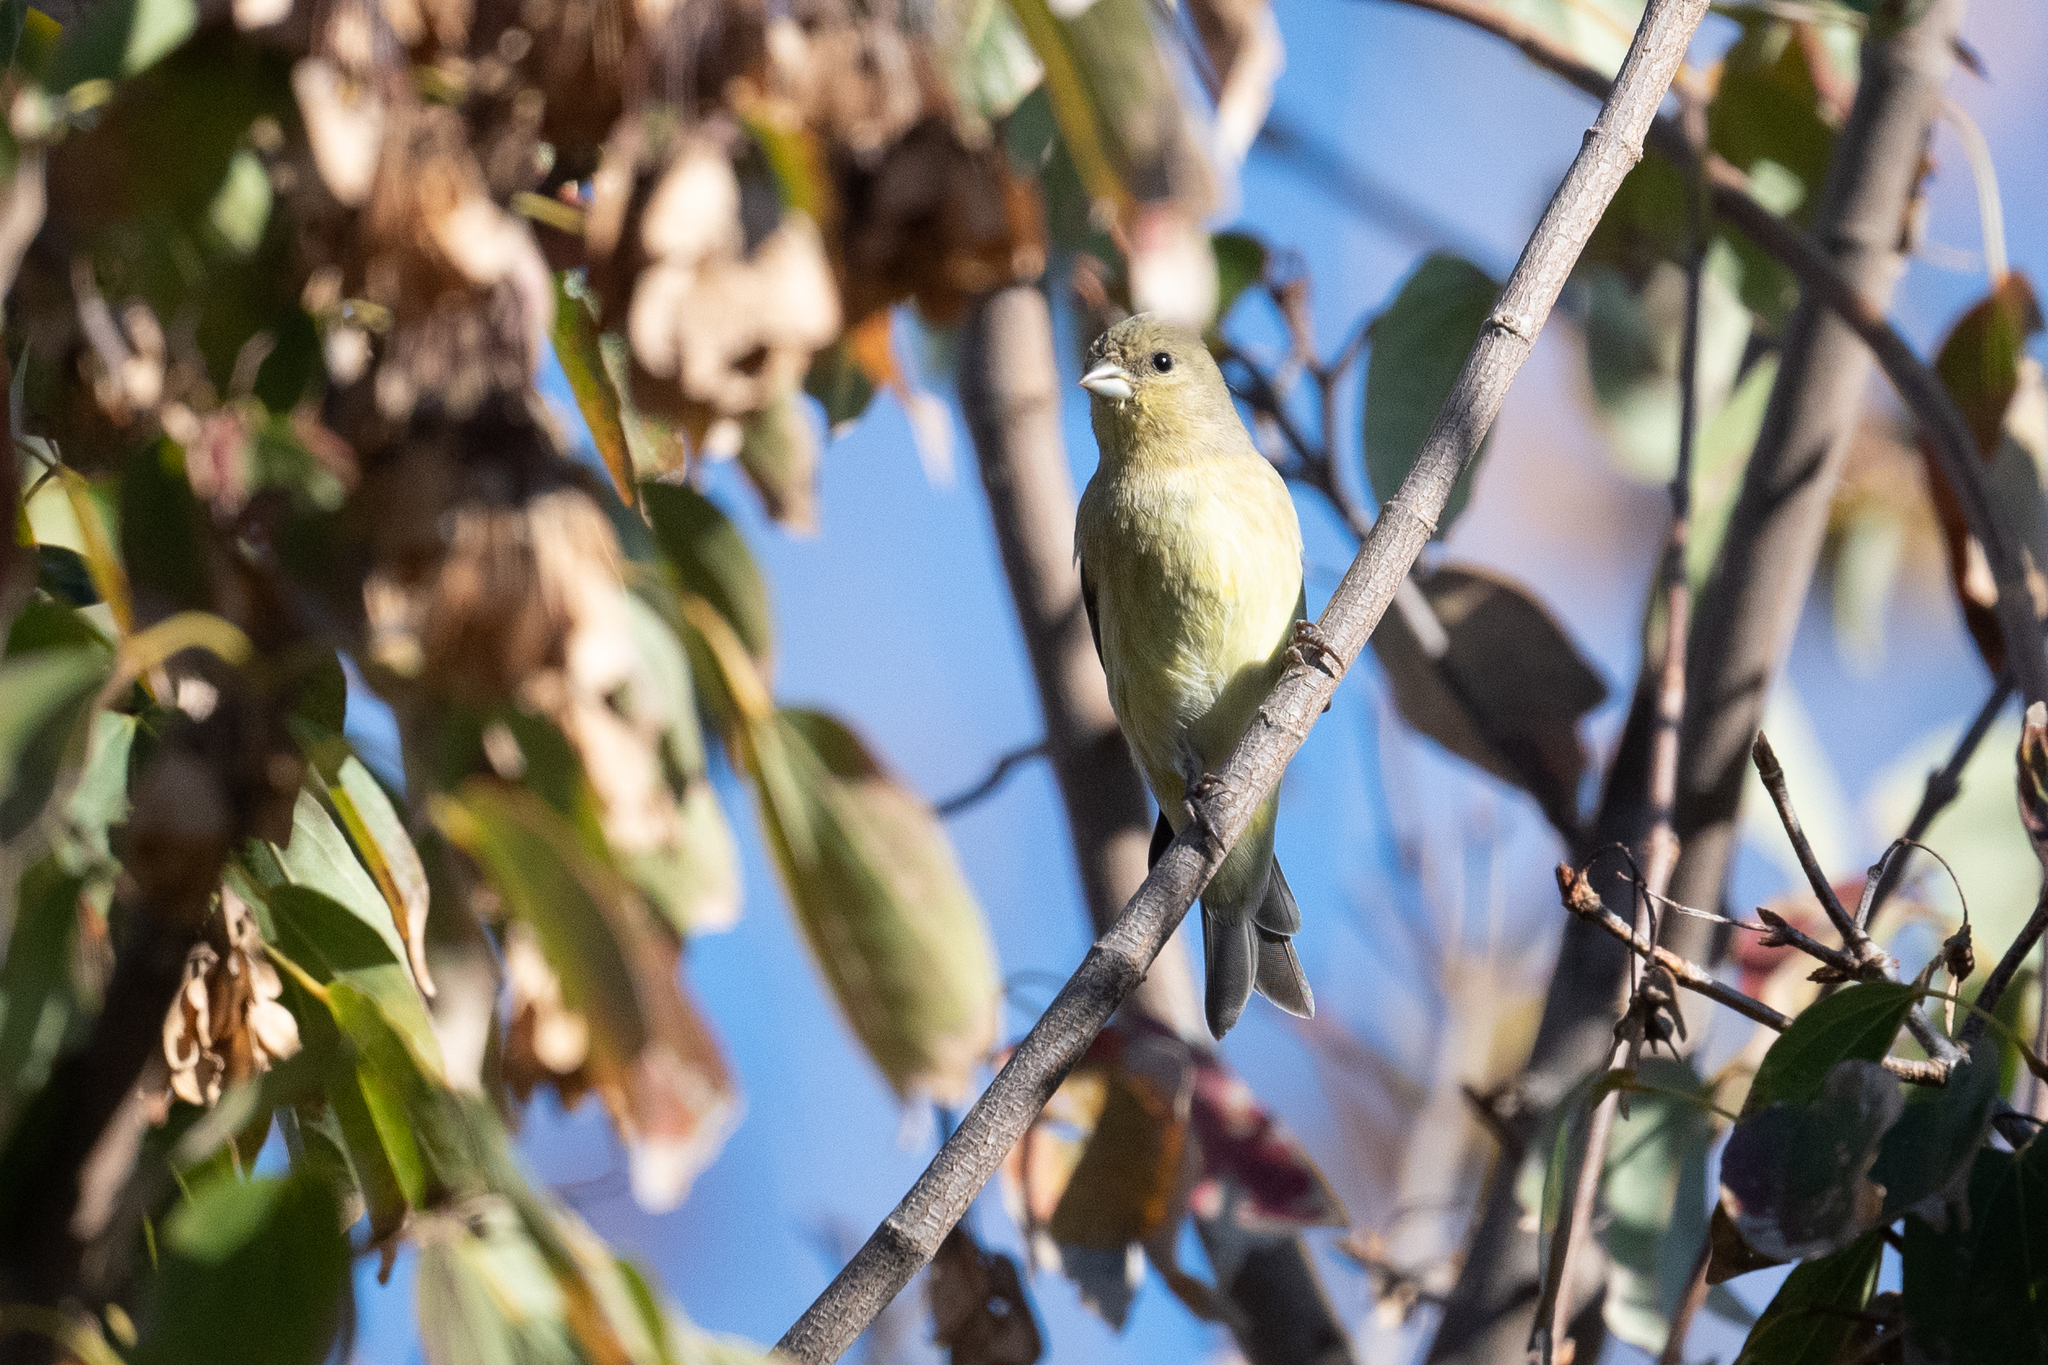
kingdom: Animalia
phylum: Chordata
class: Aves
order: Passeriformes
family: Fringillidae
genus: Spinus
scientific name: Spinus psaltria
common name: Lesser goldfinch
